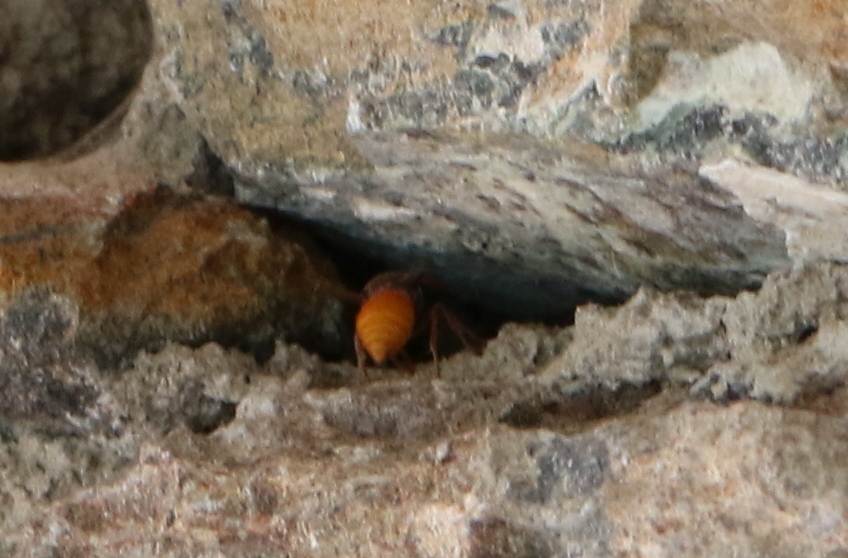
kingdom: Animalia
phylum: Arthropoda
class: Insecta
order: Hymenoptera
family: Eumenidae
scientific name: Eumenidae
